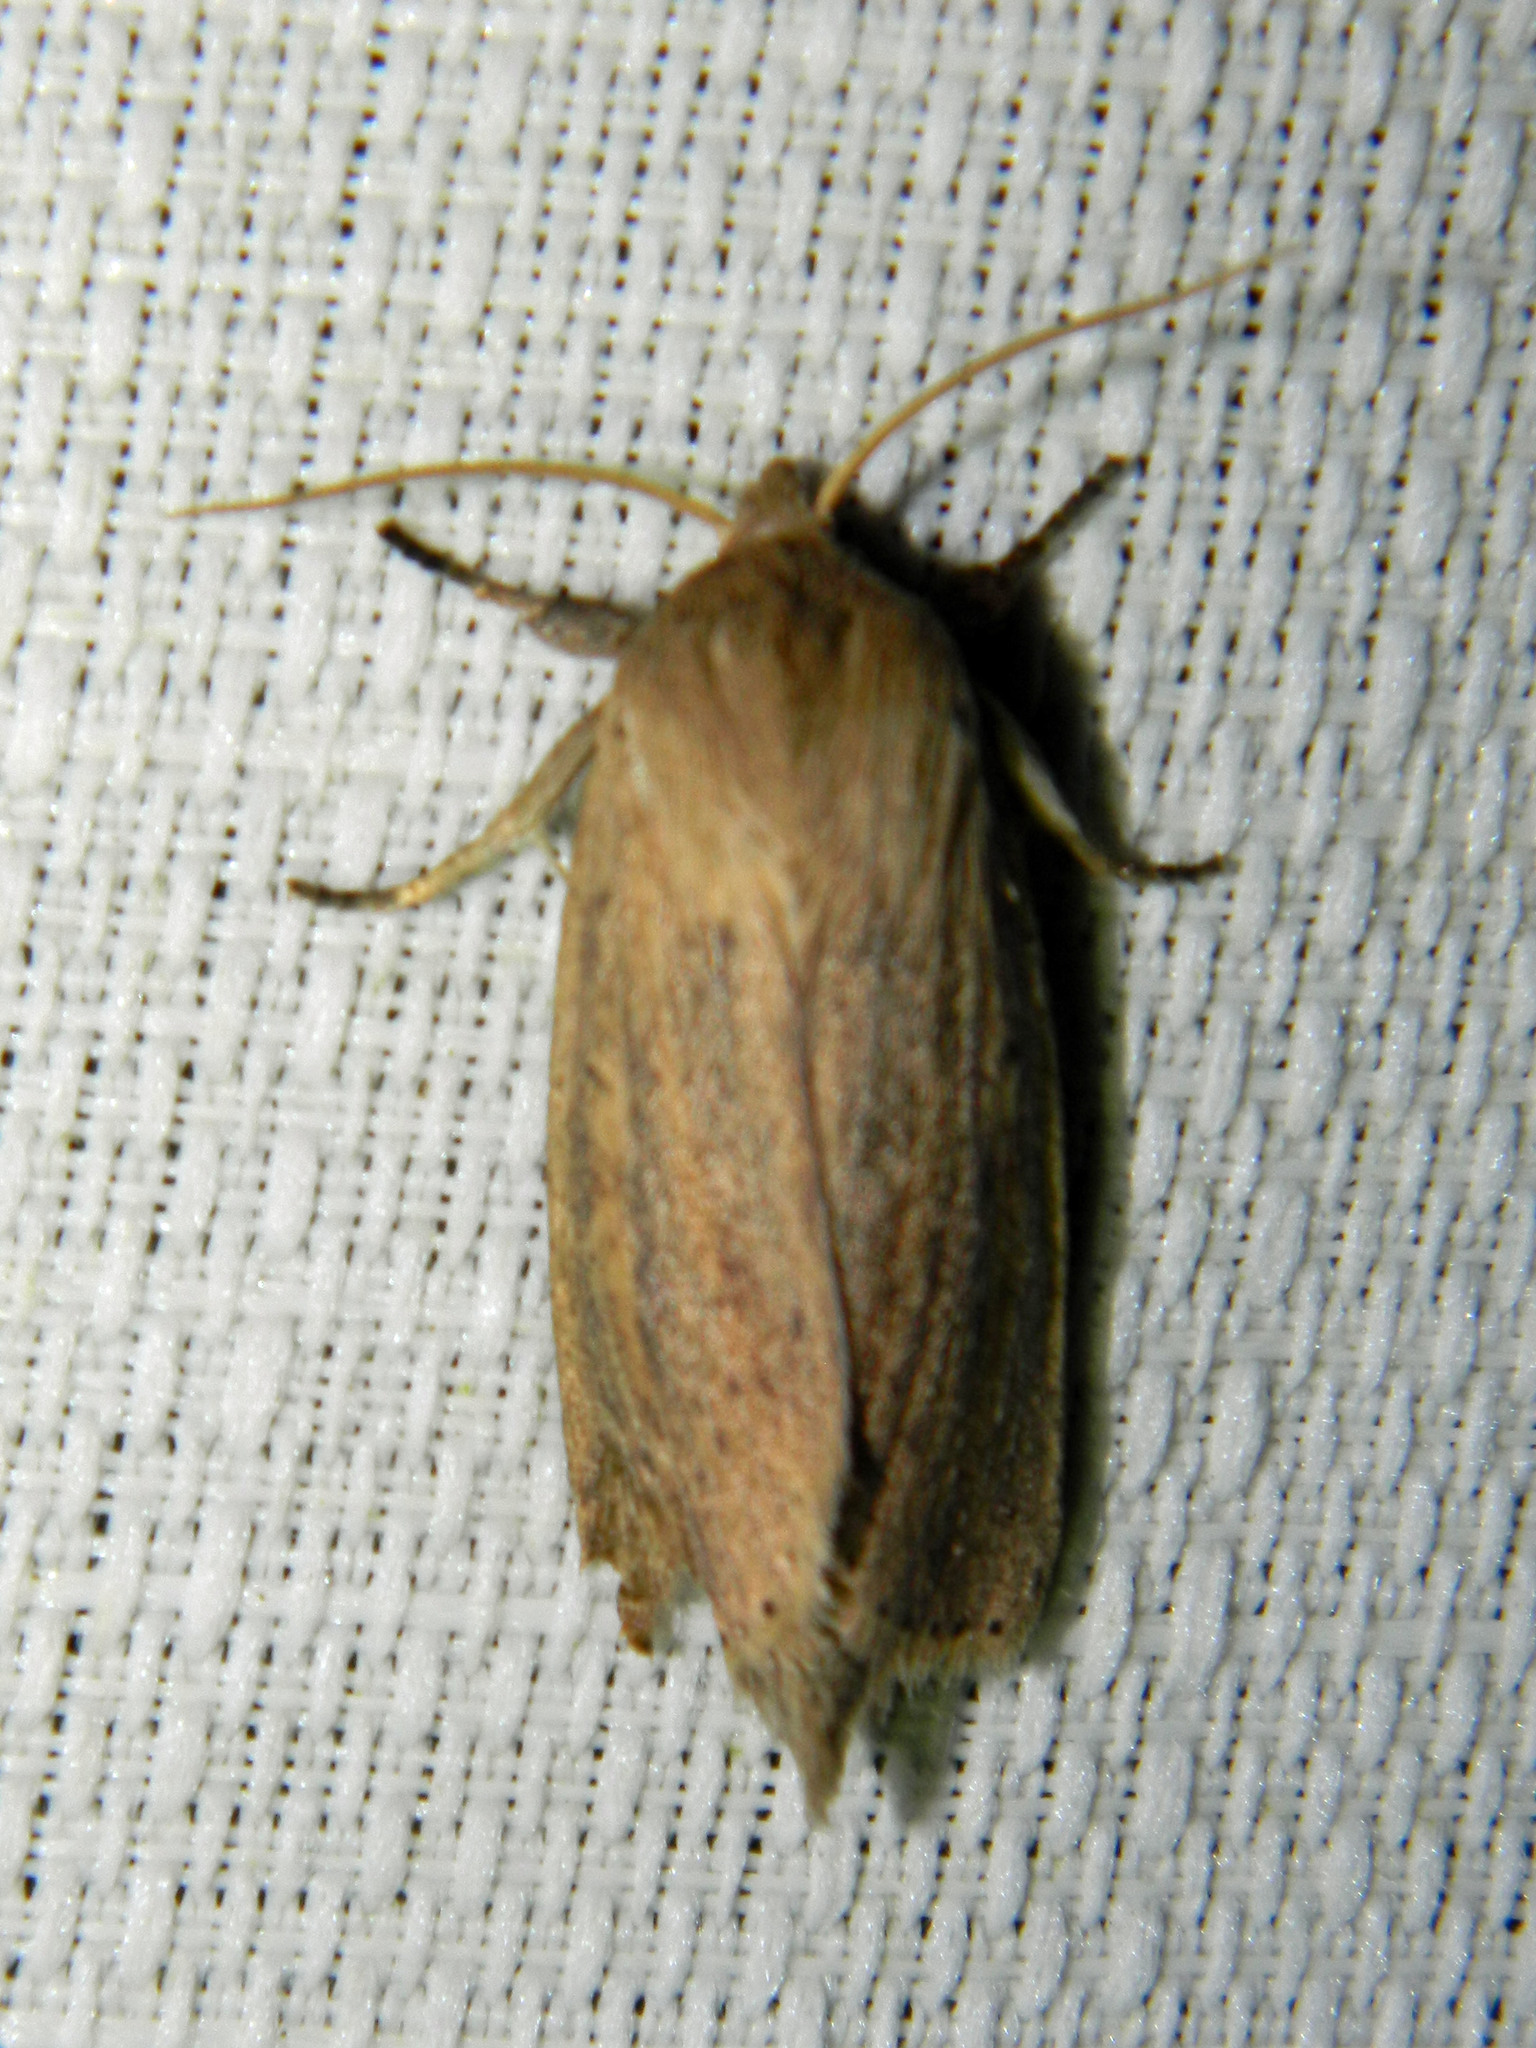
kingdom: Animalia
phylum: Arthropoda
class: Insecta
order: Lepidoptera
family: Noctuidae
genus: Globia
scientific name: Globia oblonga
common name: Oblong sedge borer moth
